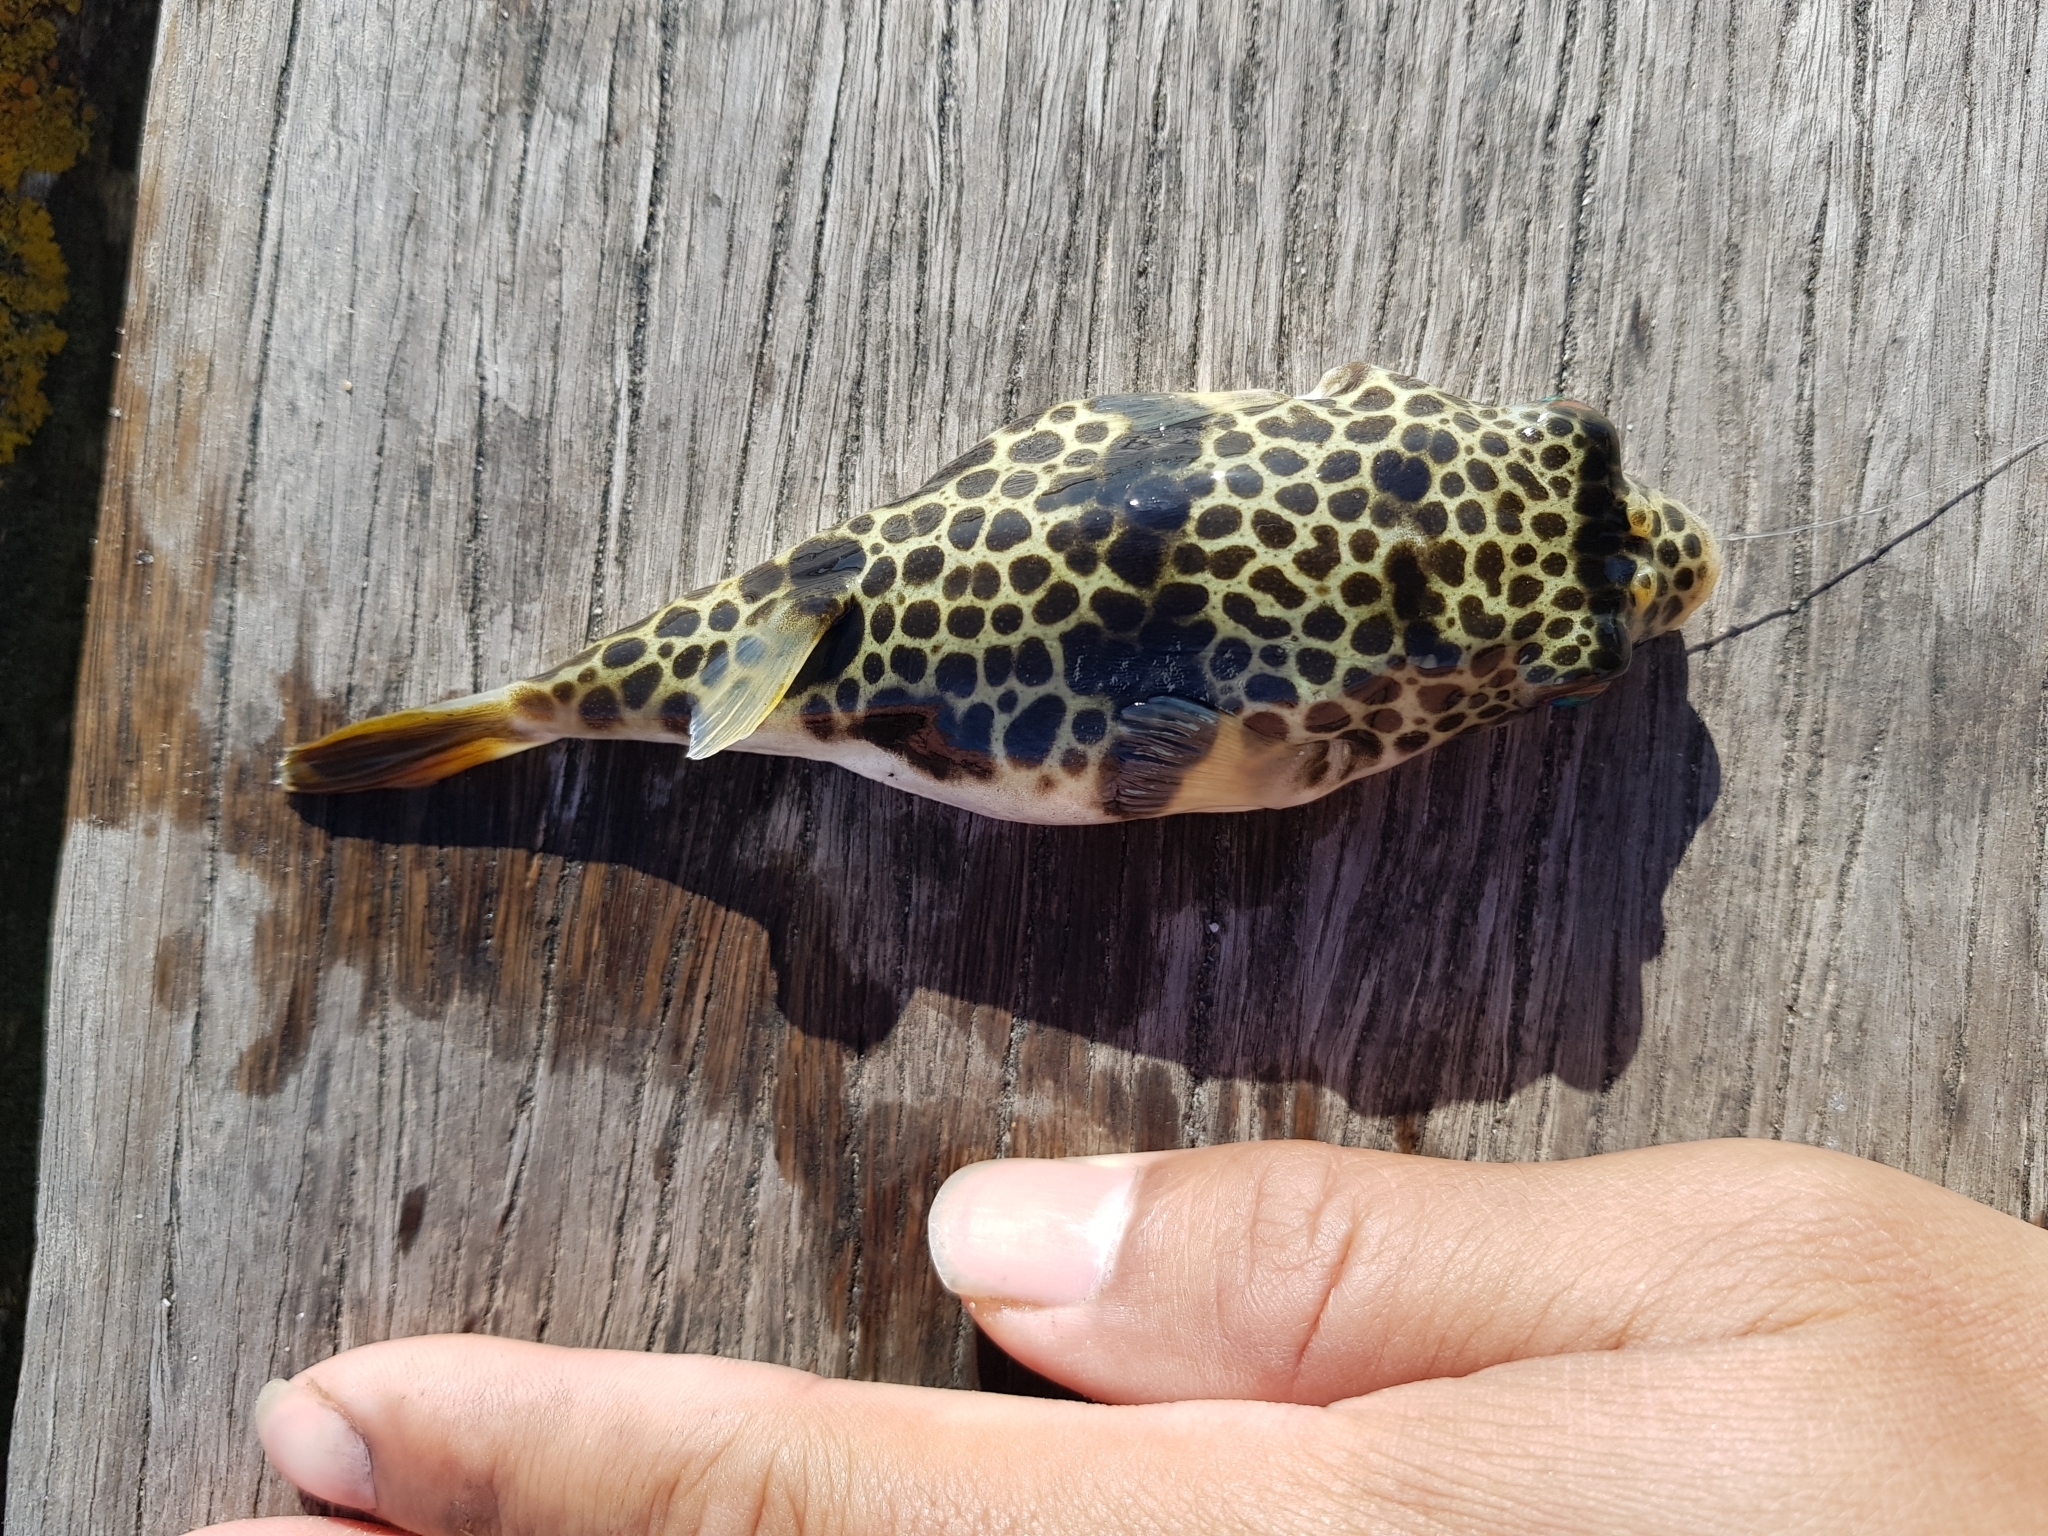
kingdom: Animalia
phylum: Chordata
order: Tetraodontiformes
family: Tetraodontidae
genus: Tetractenos
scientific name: Tetractenos glaber
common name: Smooth toadfish
